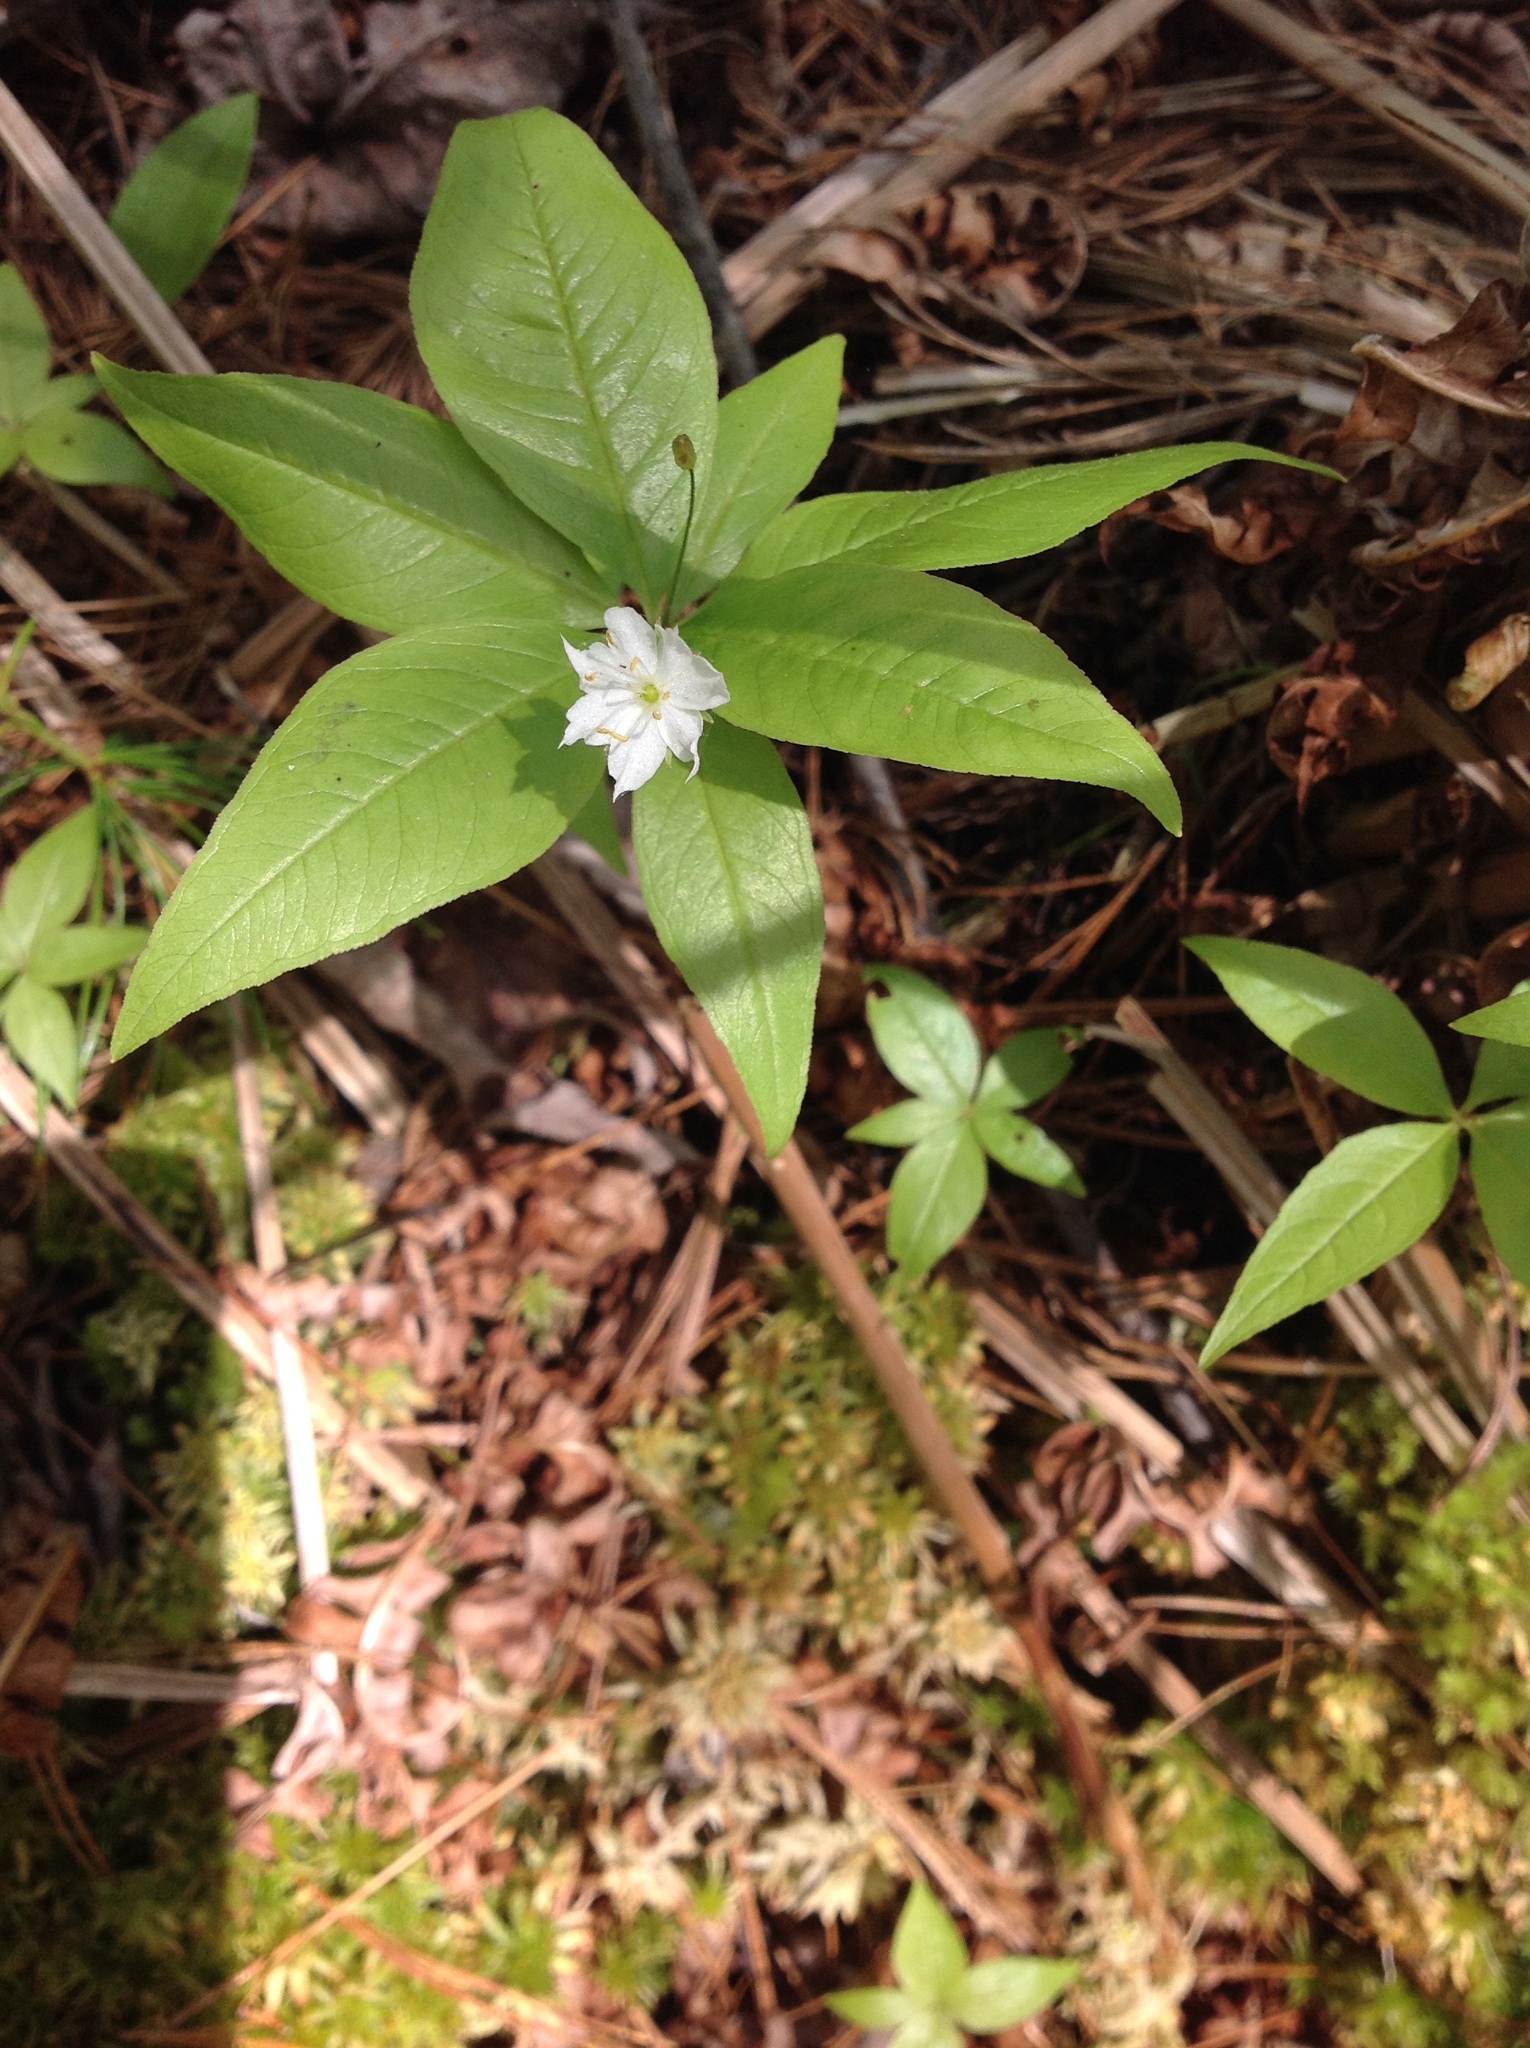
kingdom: Plantae
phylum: Tracheophyta
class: Magnoliopsida
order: Ericales
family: Primulaceae
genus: Lysimachia
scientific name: Lysimachia borealis
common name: American starflower
